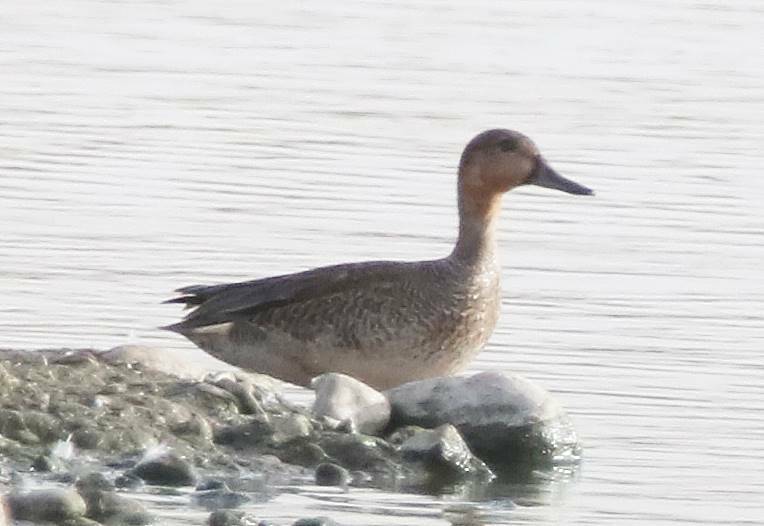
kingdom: Animalia
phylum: Chordata
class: Aves
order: Anseriformes
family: Anatidae
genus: Anas
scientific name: Anas acuta
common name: Northern pintail
